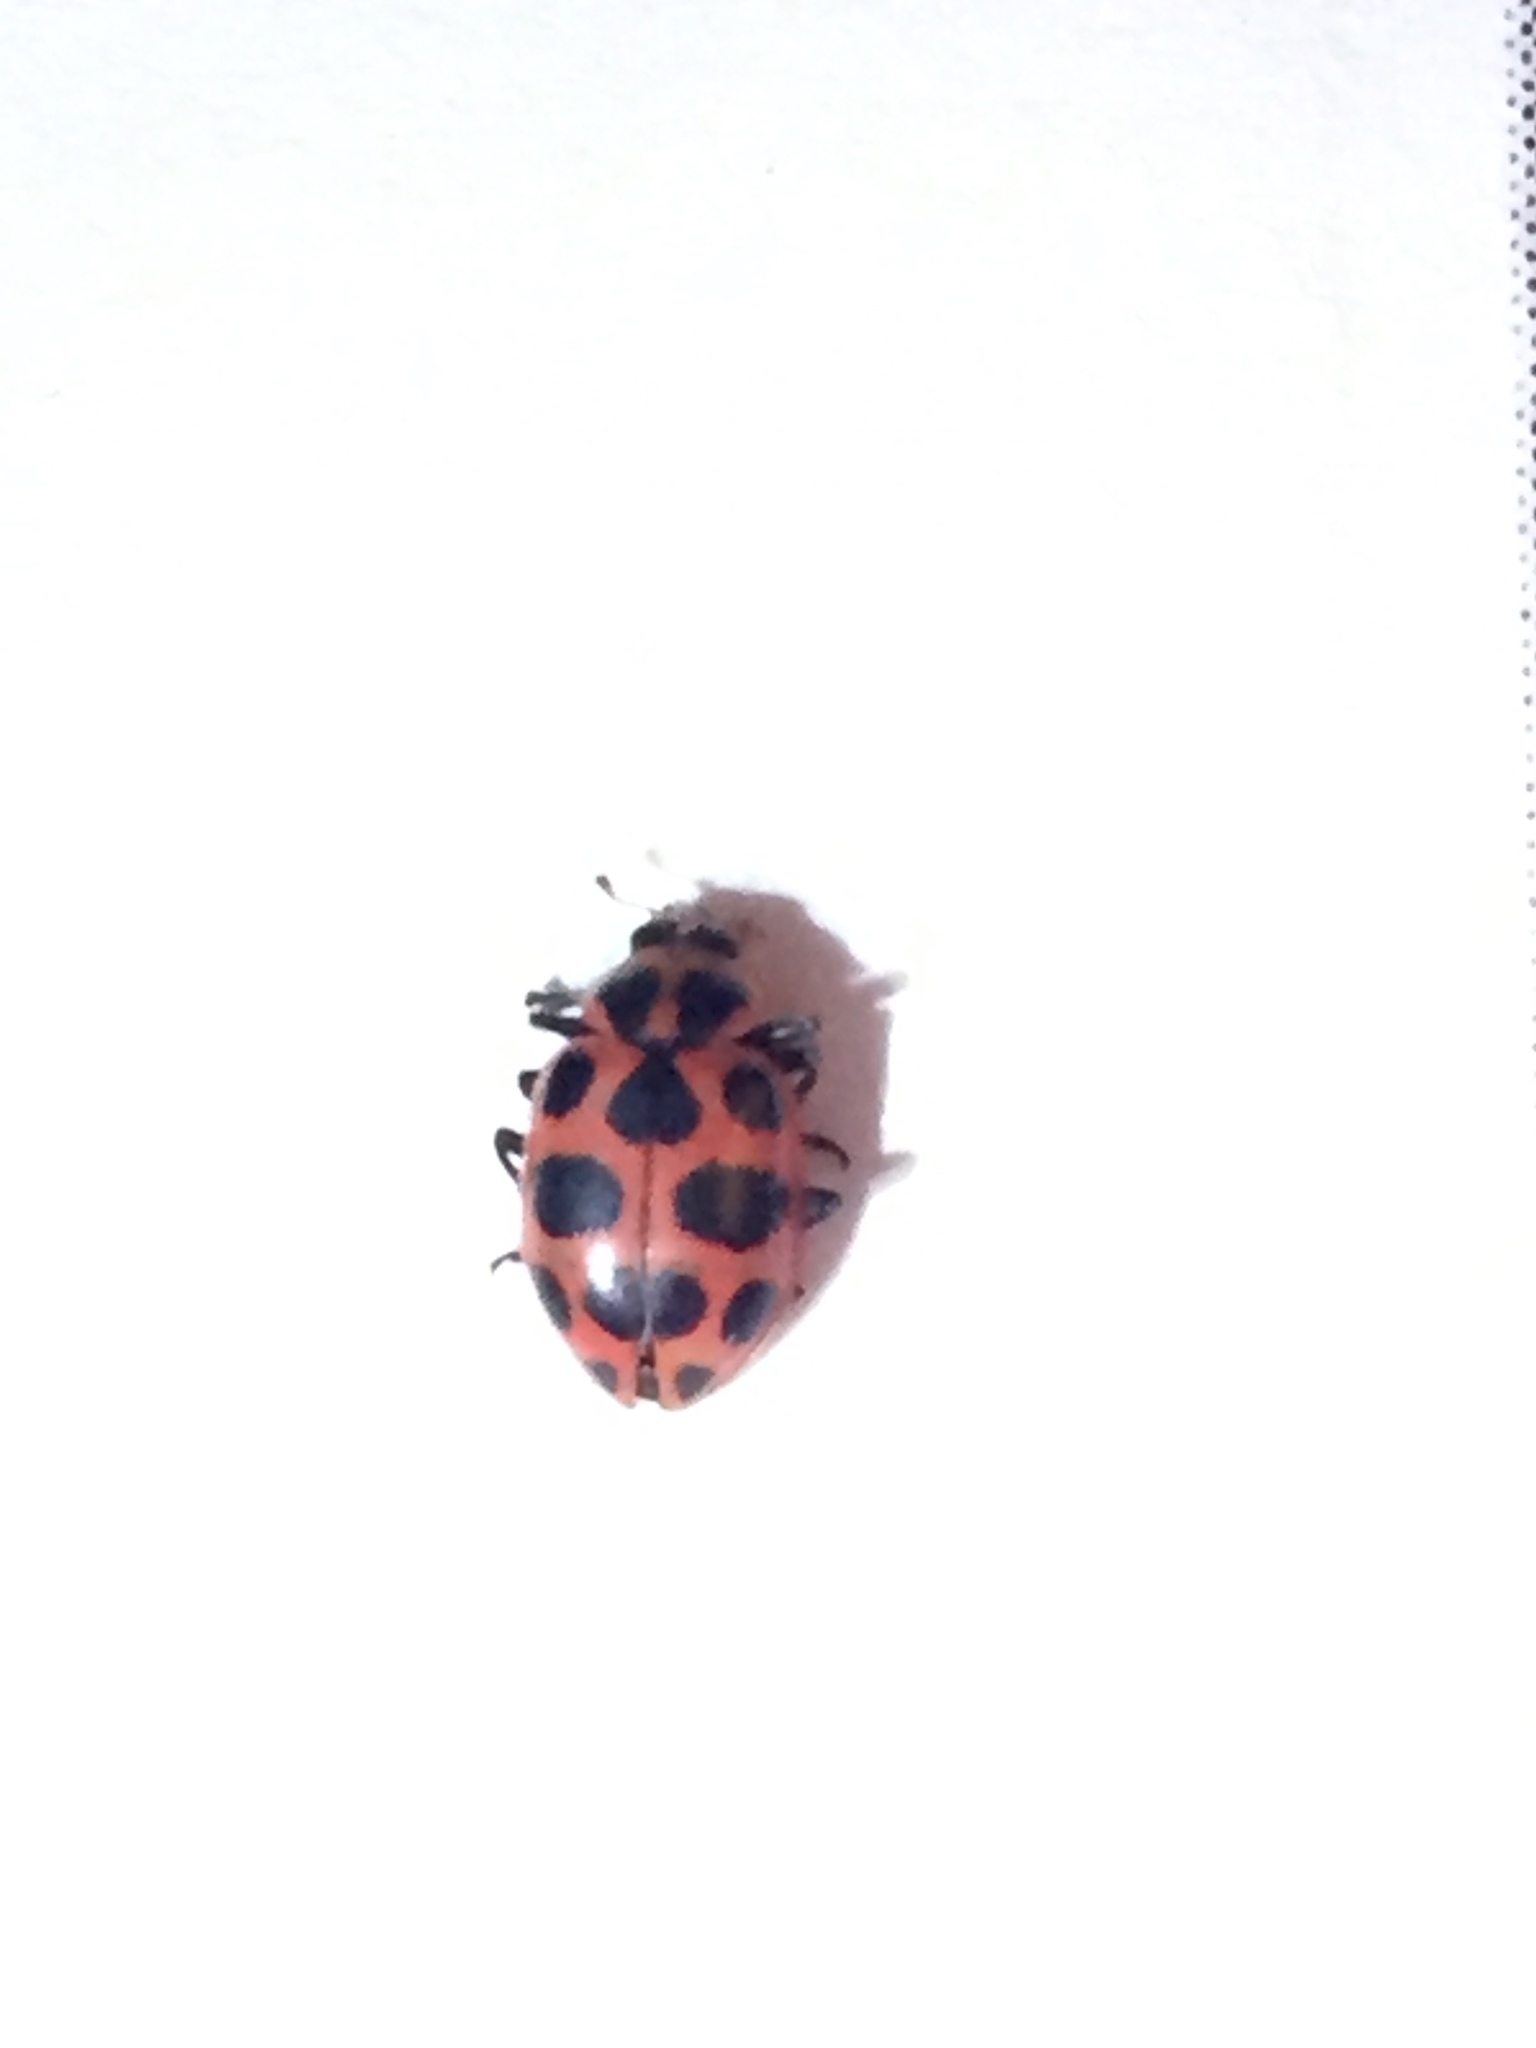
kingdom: Animalia
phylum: Arthropoda
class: Insecta
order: Coleoptera
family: Coccinellidae
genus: Coleomegilla
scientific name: Coleomegilla maculata
